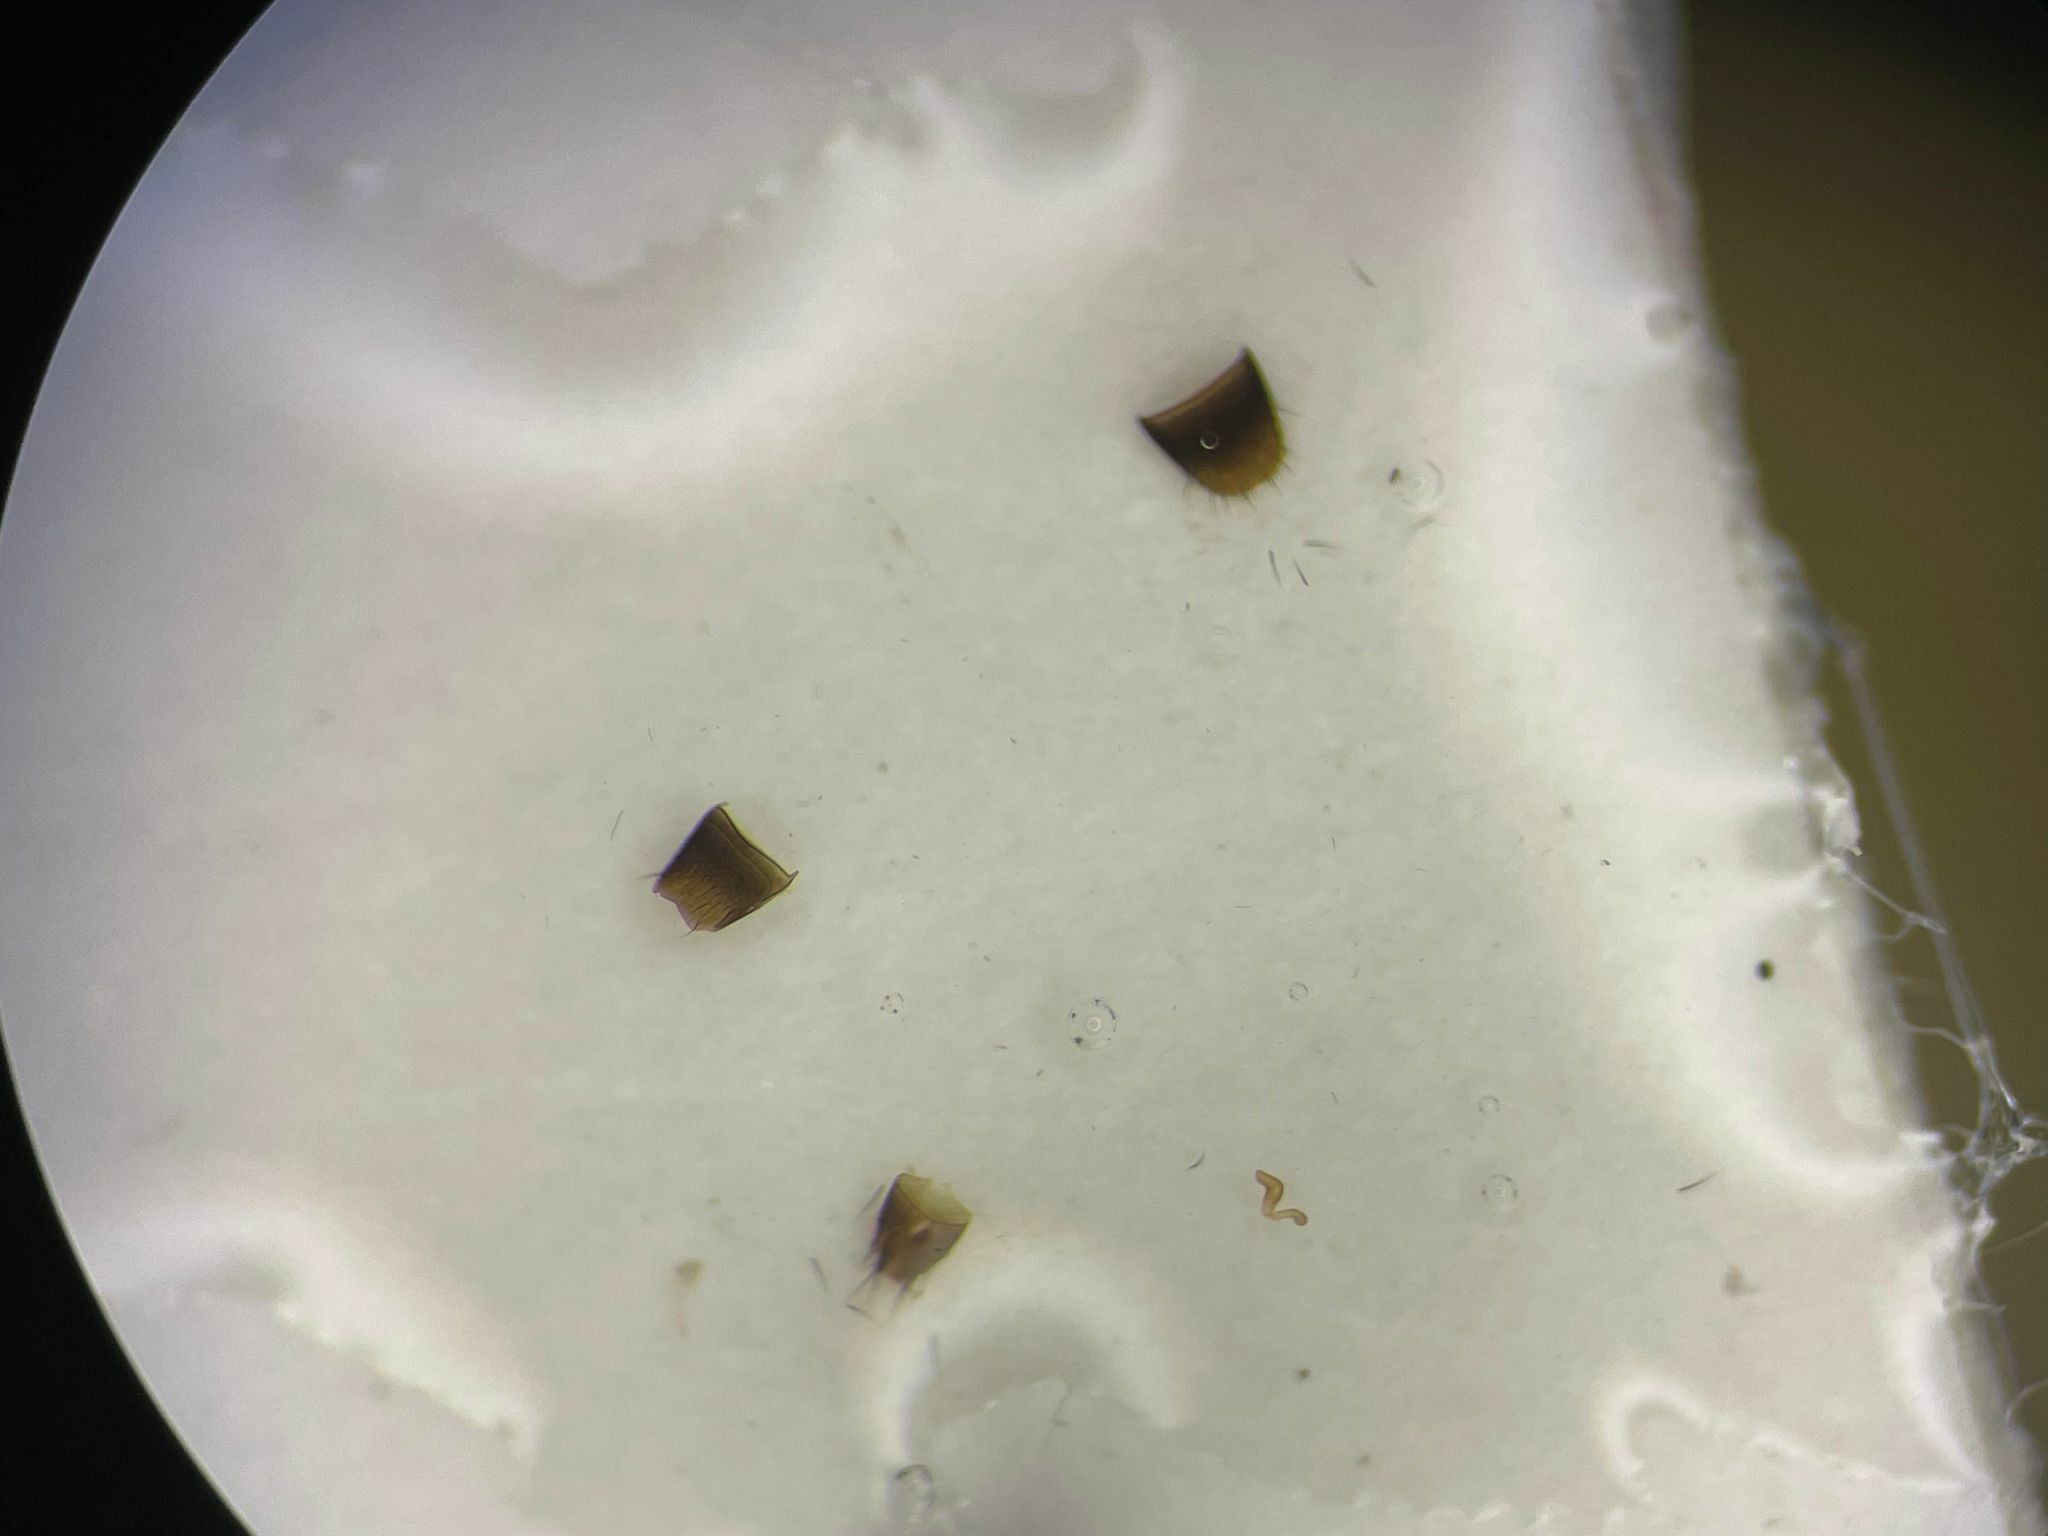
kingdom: Animalia
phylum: Arthropoda
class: Insecta
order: Coleoptera
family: Staphylinidae
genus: Atheta
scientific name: Atheta dadopora
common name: Rove beetle
